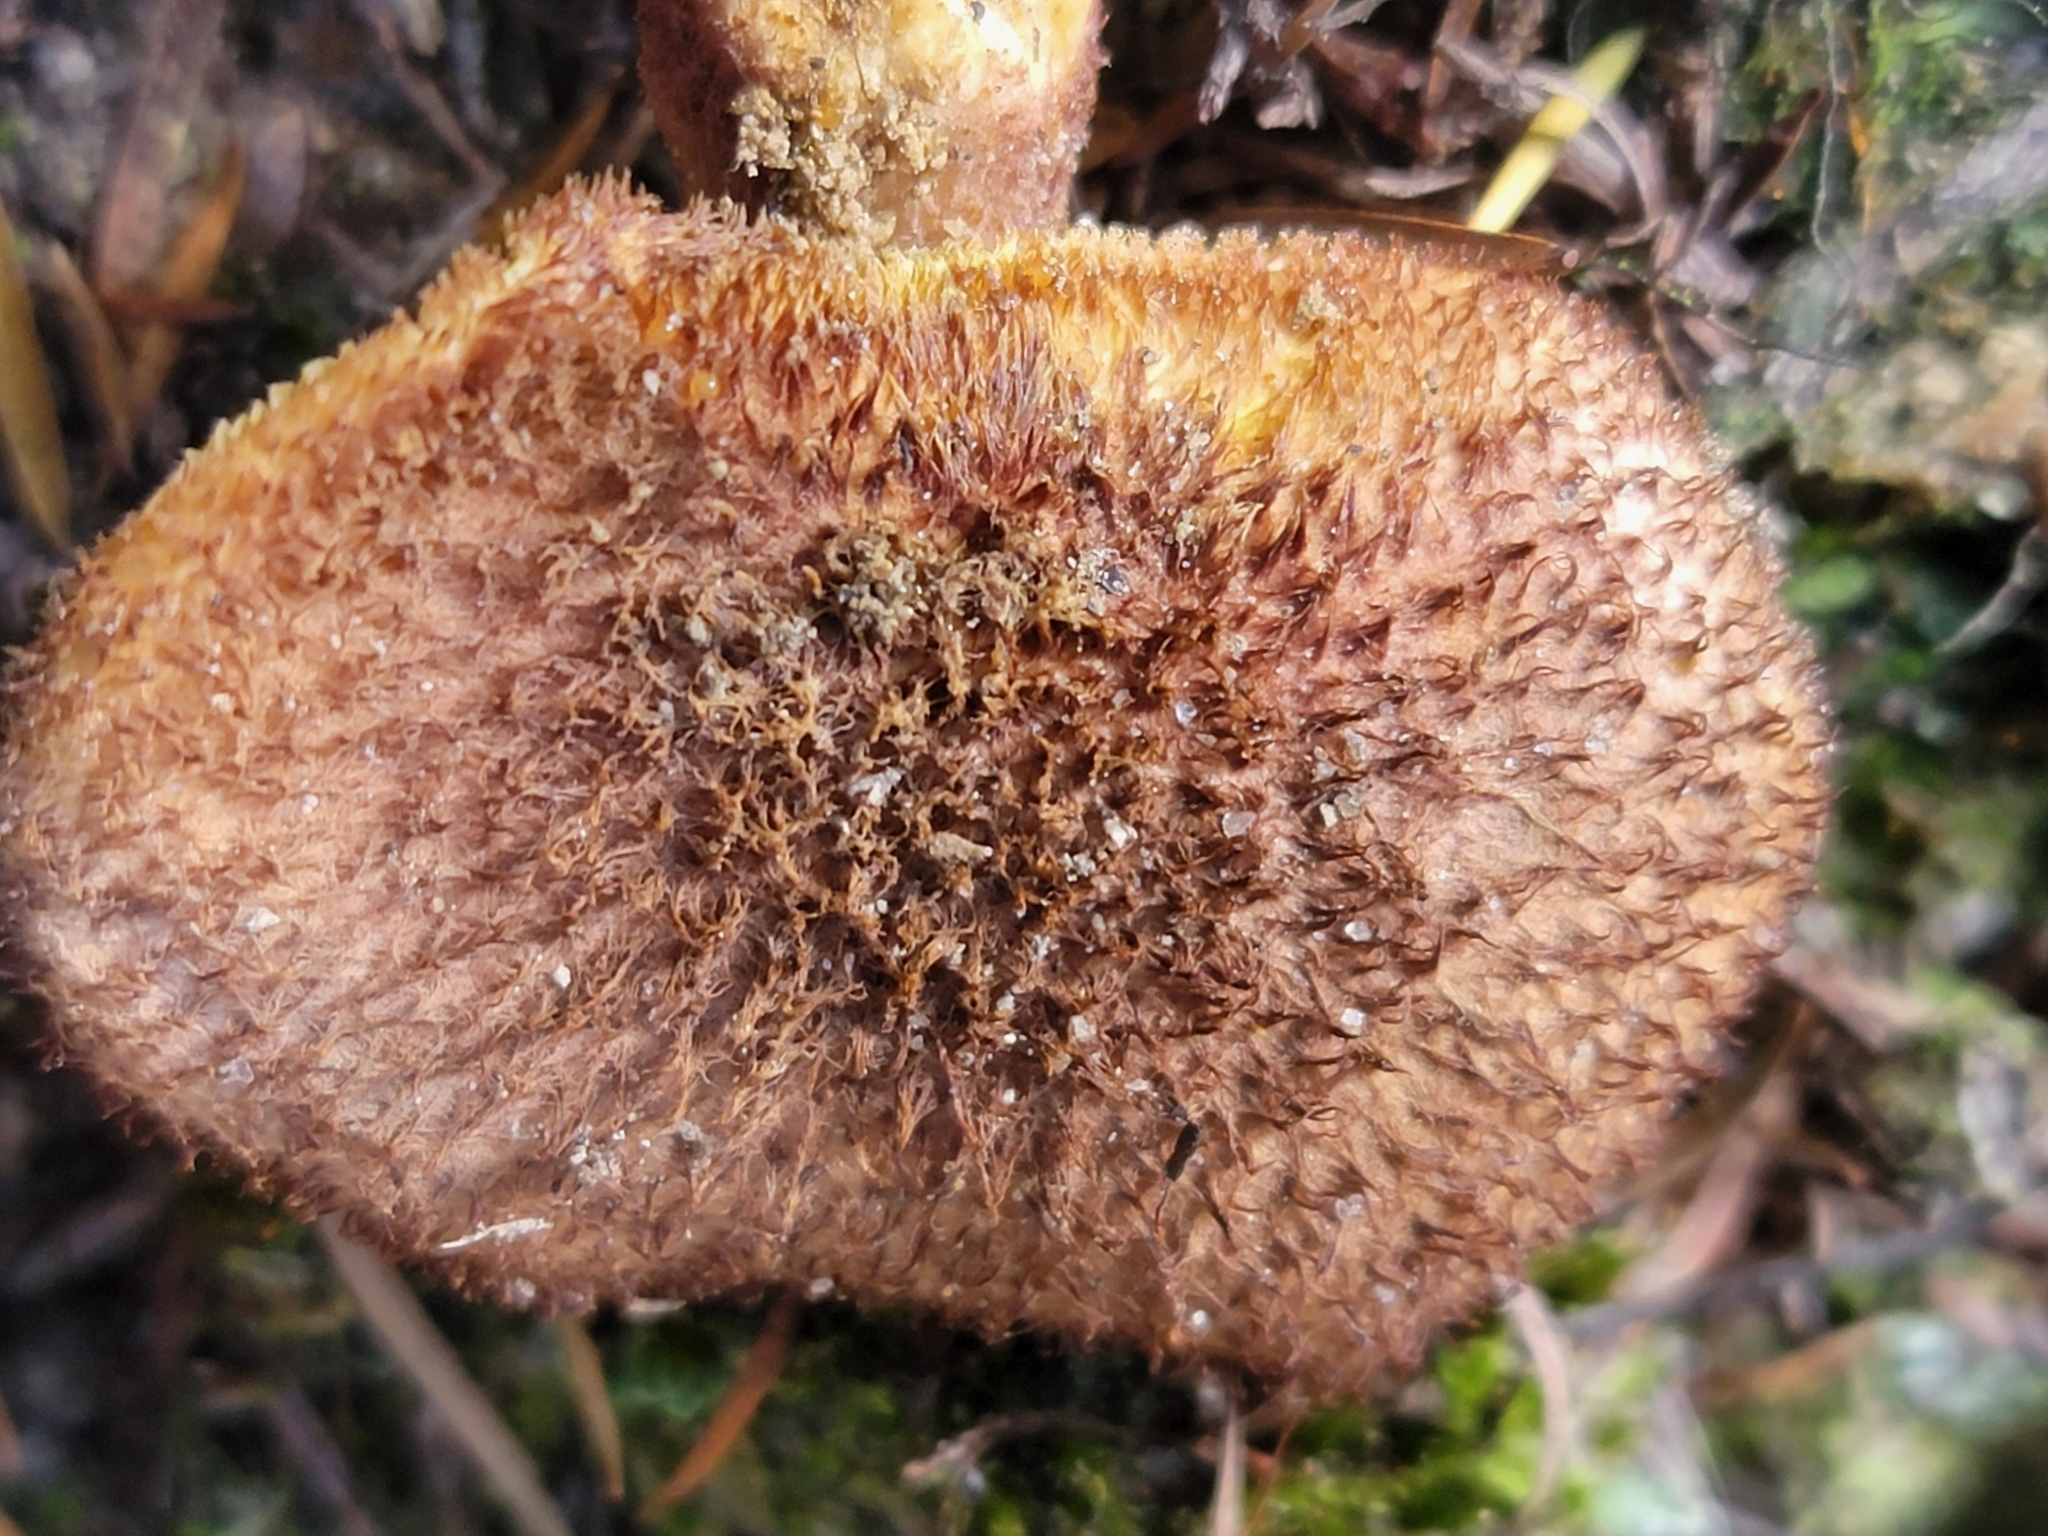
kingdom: Fungi
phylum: Basidiomycota
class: Agaricomycetes
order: Agaricales
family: Tricholomataceae
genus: Tricholomopsis
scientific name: Tricholomopsis scabra
